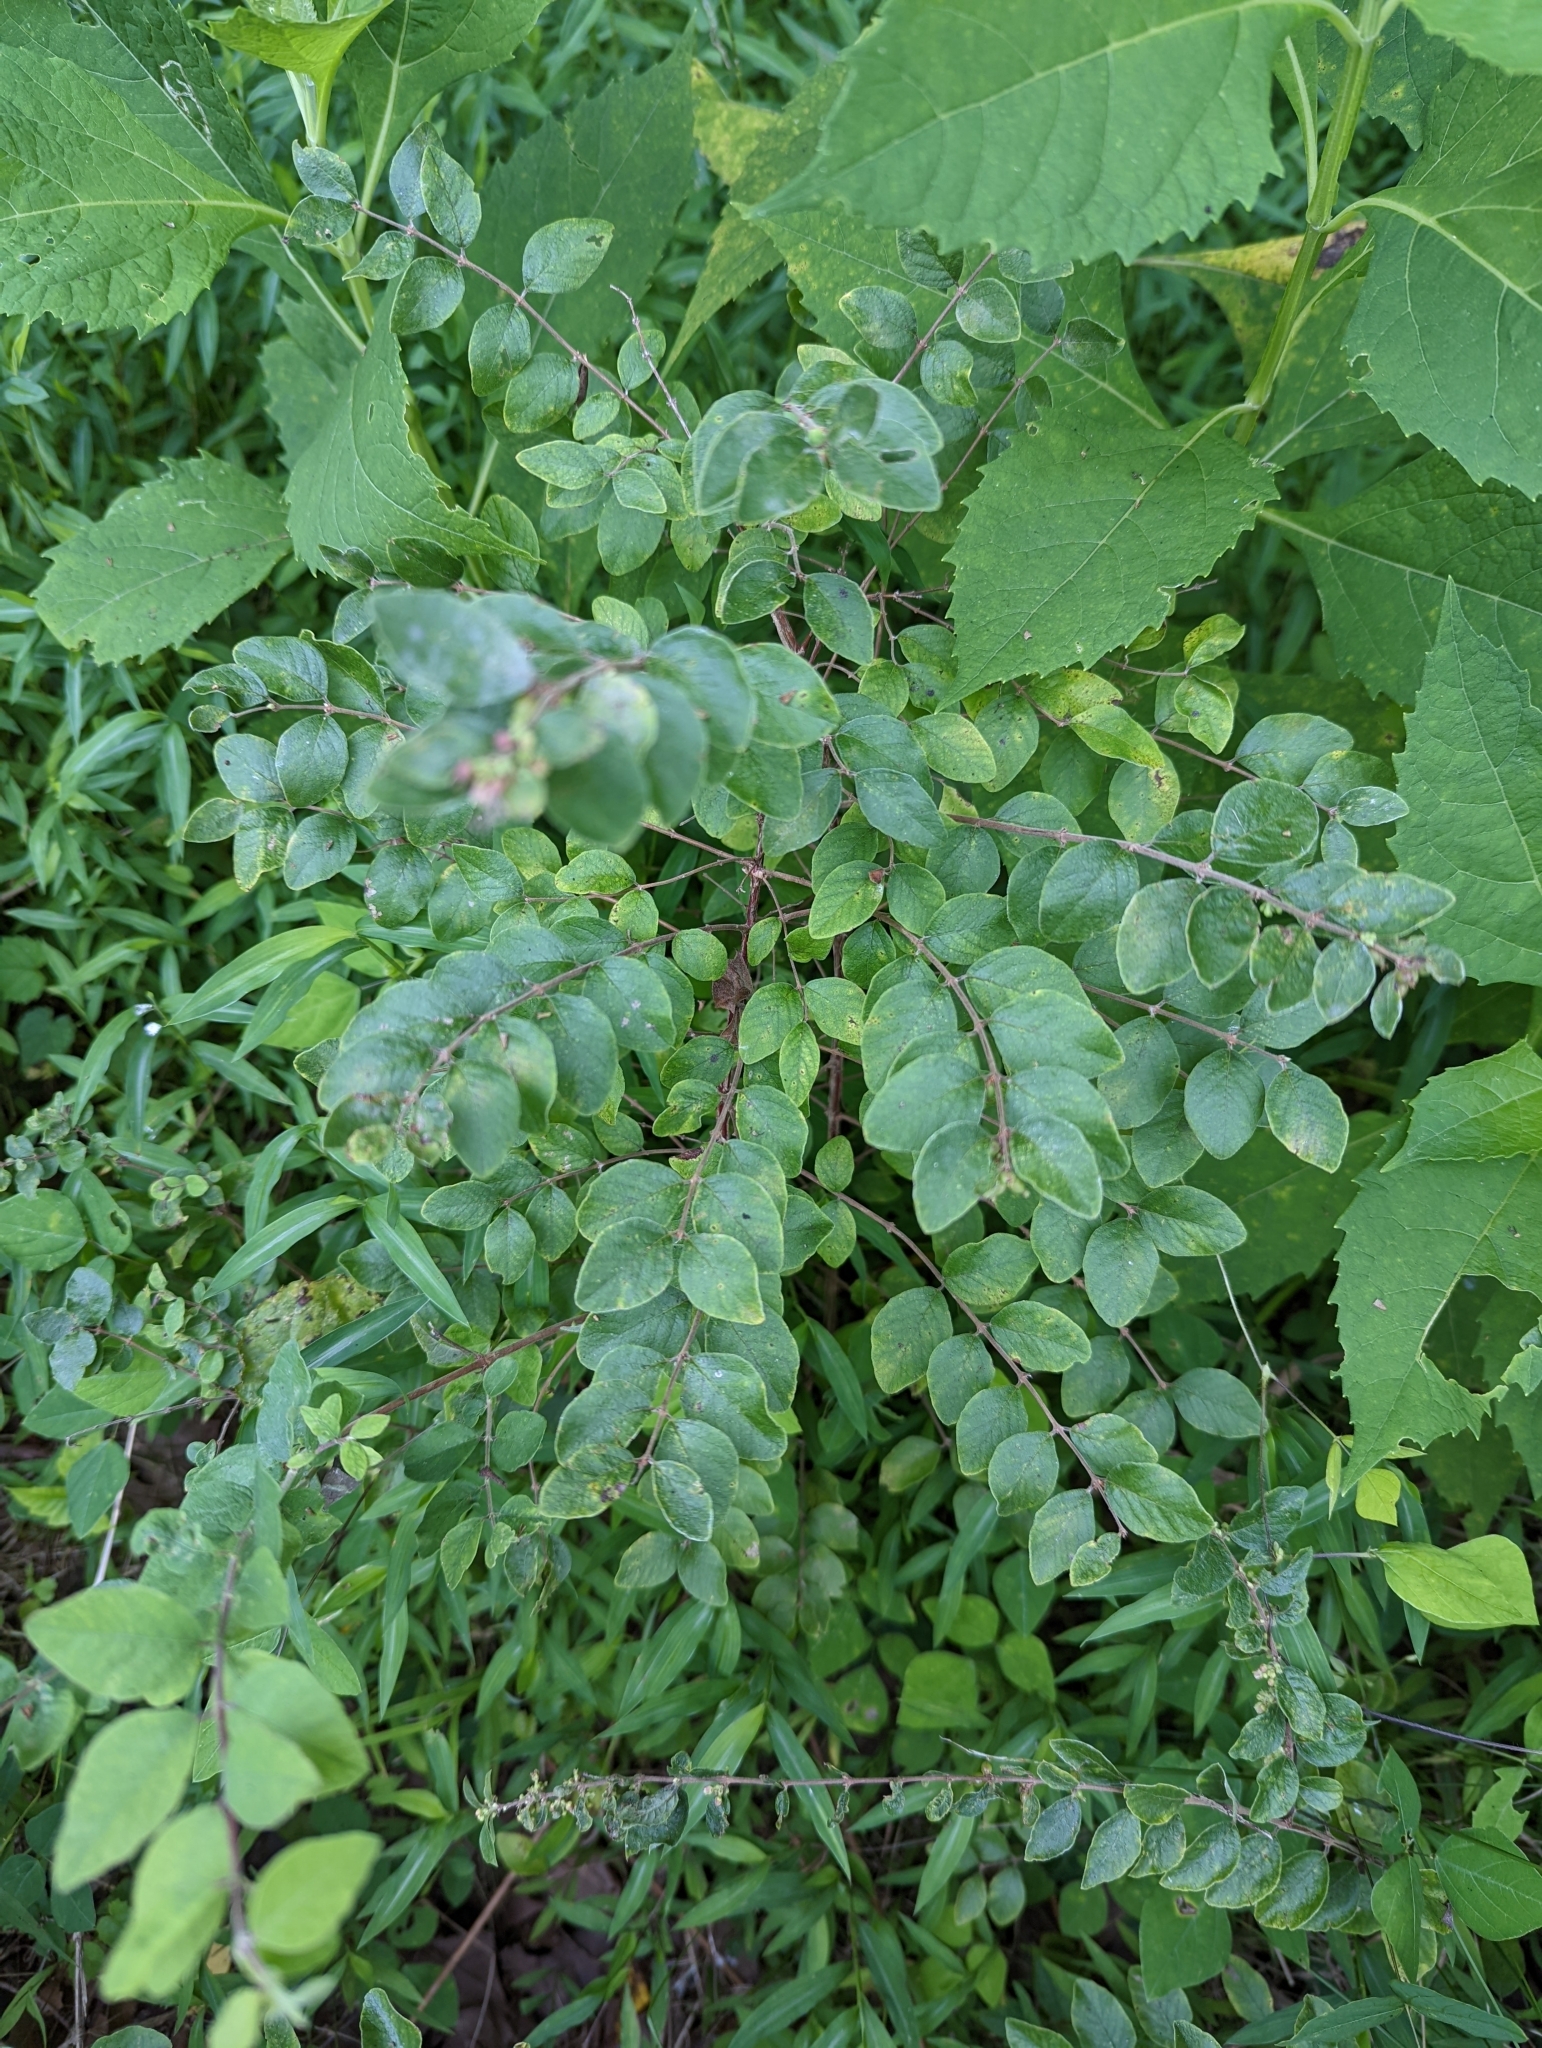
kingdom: Plantae
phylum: Tracheophyta
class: Magnoliopsida
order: Dipsacales
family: Caprifoliaceae
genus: Symphoricarpos
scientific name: Symphoricarpos orbiculatus
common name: Coralberry
